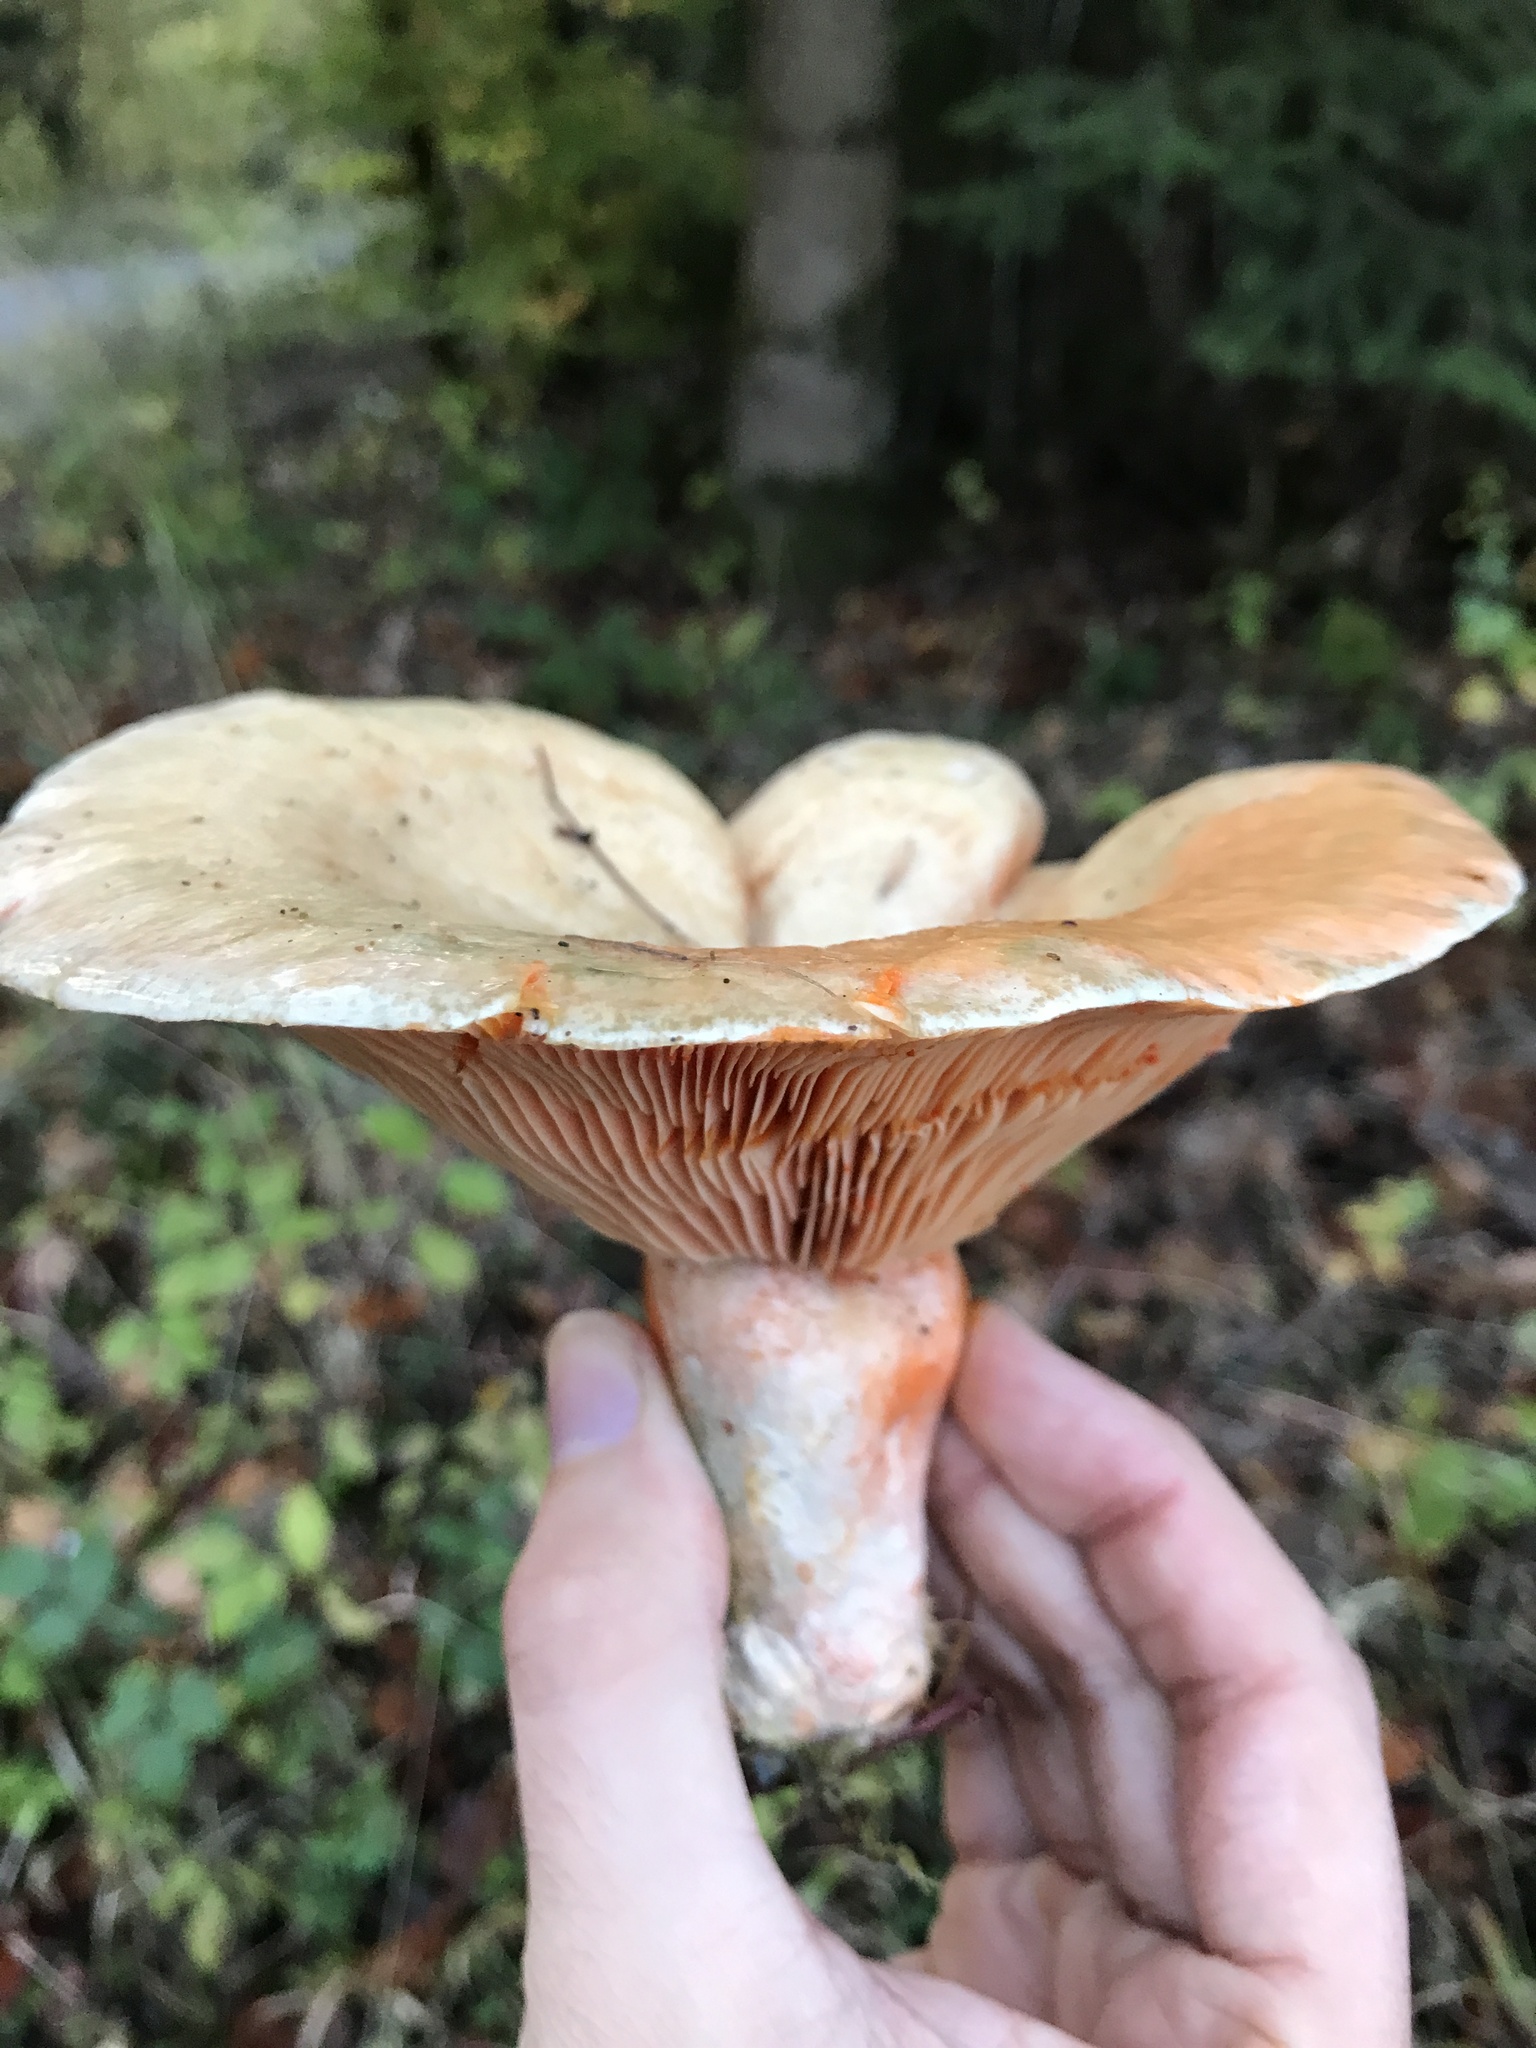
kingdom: Fungi
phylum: Basidiomycota
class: Agaricomycetes
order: Russulales
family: Russulaceae
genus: Lactarius
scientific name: Lactarius deterrimus
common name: False saffron milkcap
